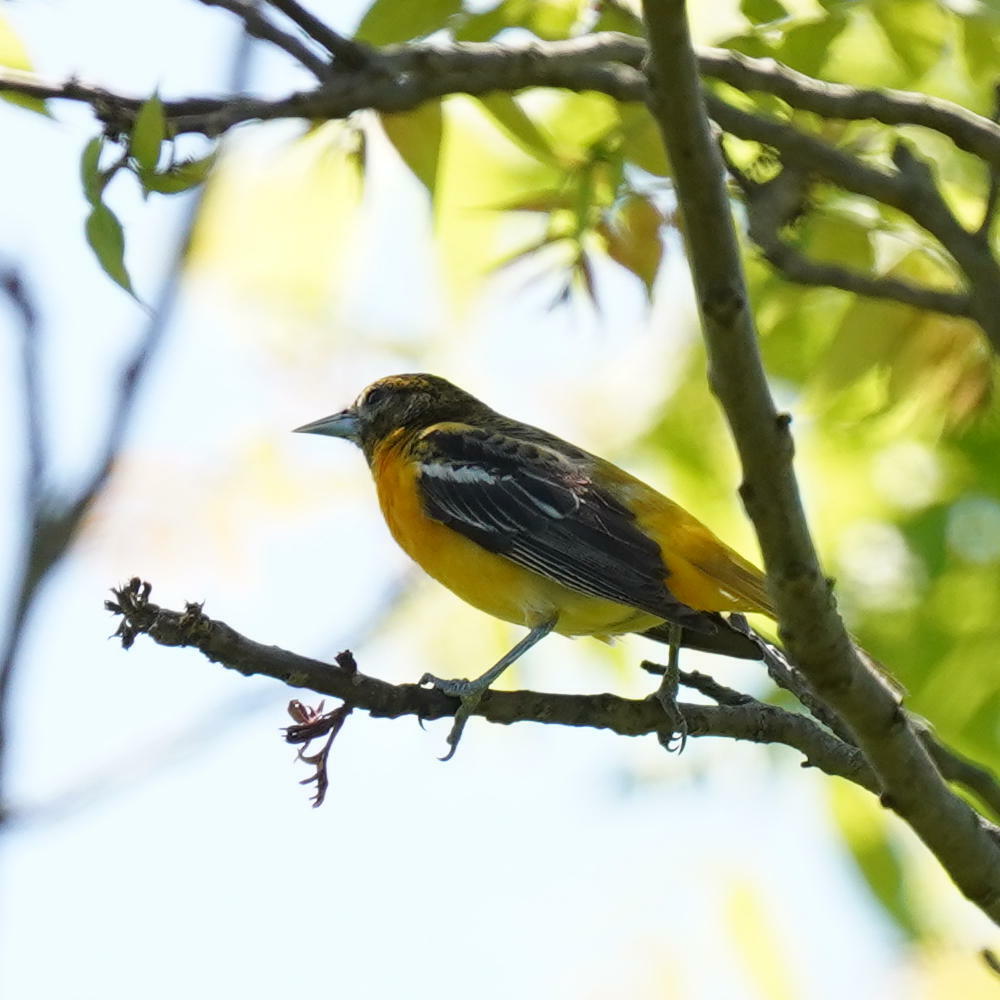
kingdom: Animalia
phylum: Chordata
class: Aves
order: Passeriformes
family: Icteridae
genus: Icterus
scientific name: Icterus galbula
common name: Baltimore oriole
